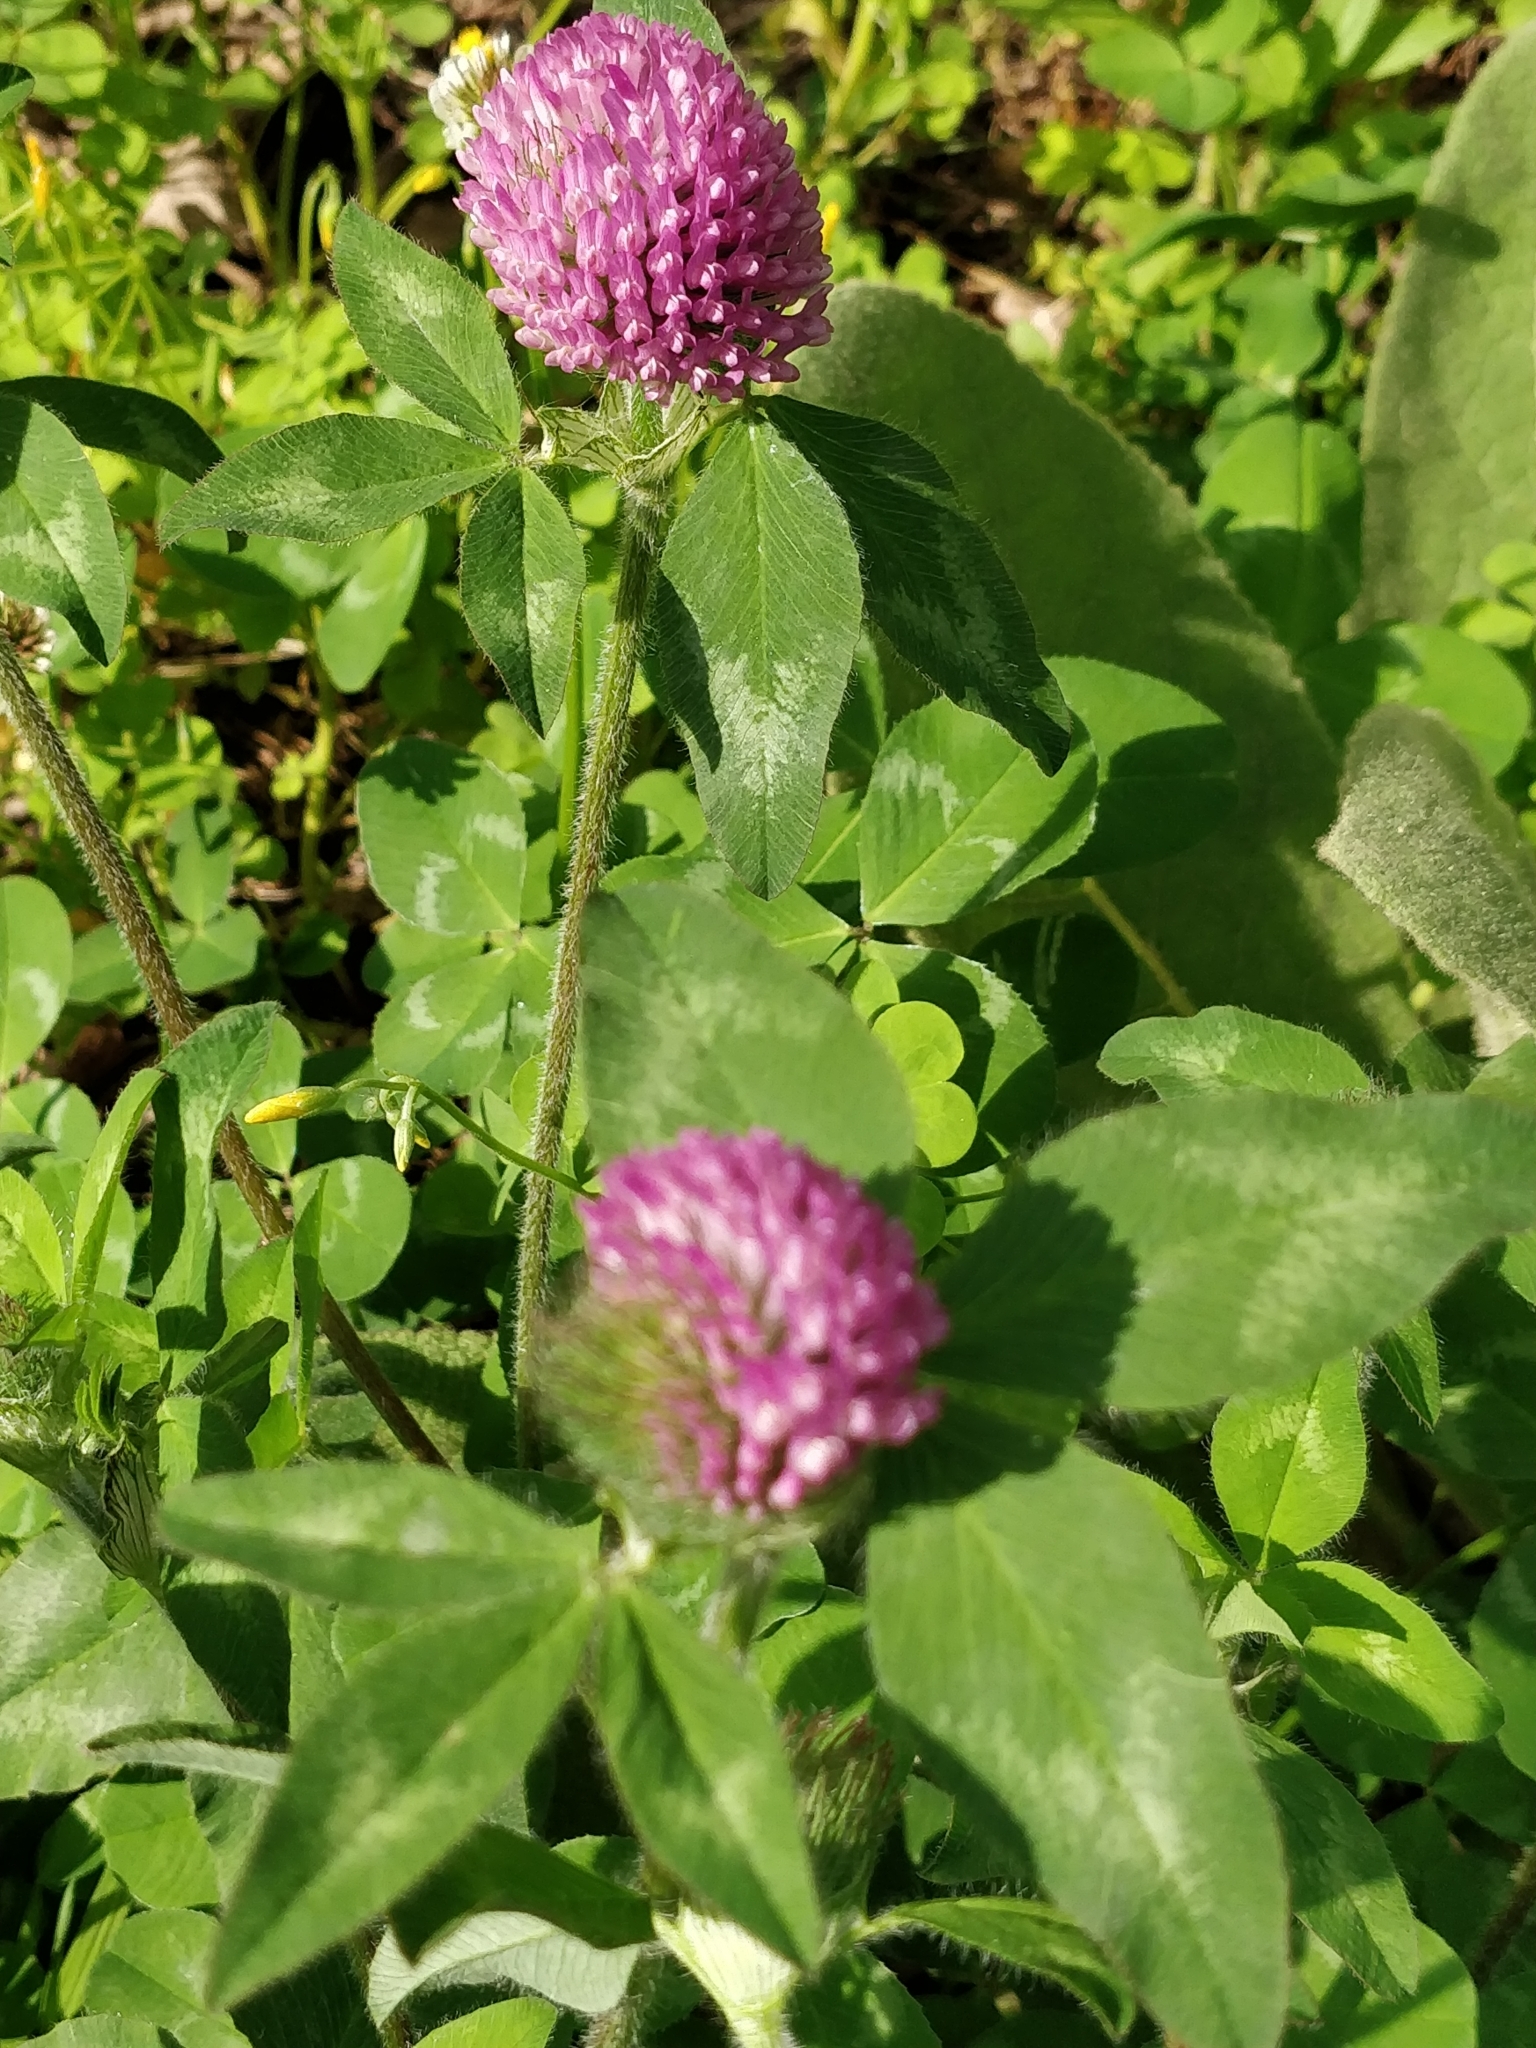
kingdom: Plantae
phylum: Tracheophyta
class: Magnoliopsida
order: Fabales
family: Fabaceae
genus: Trifolium
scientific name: Trifolium pratense
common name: Red clover
